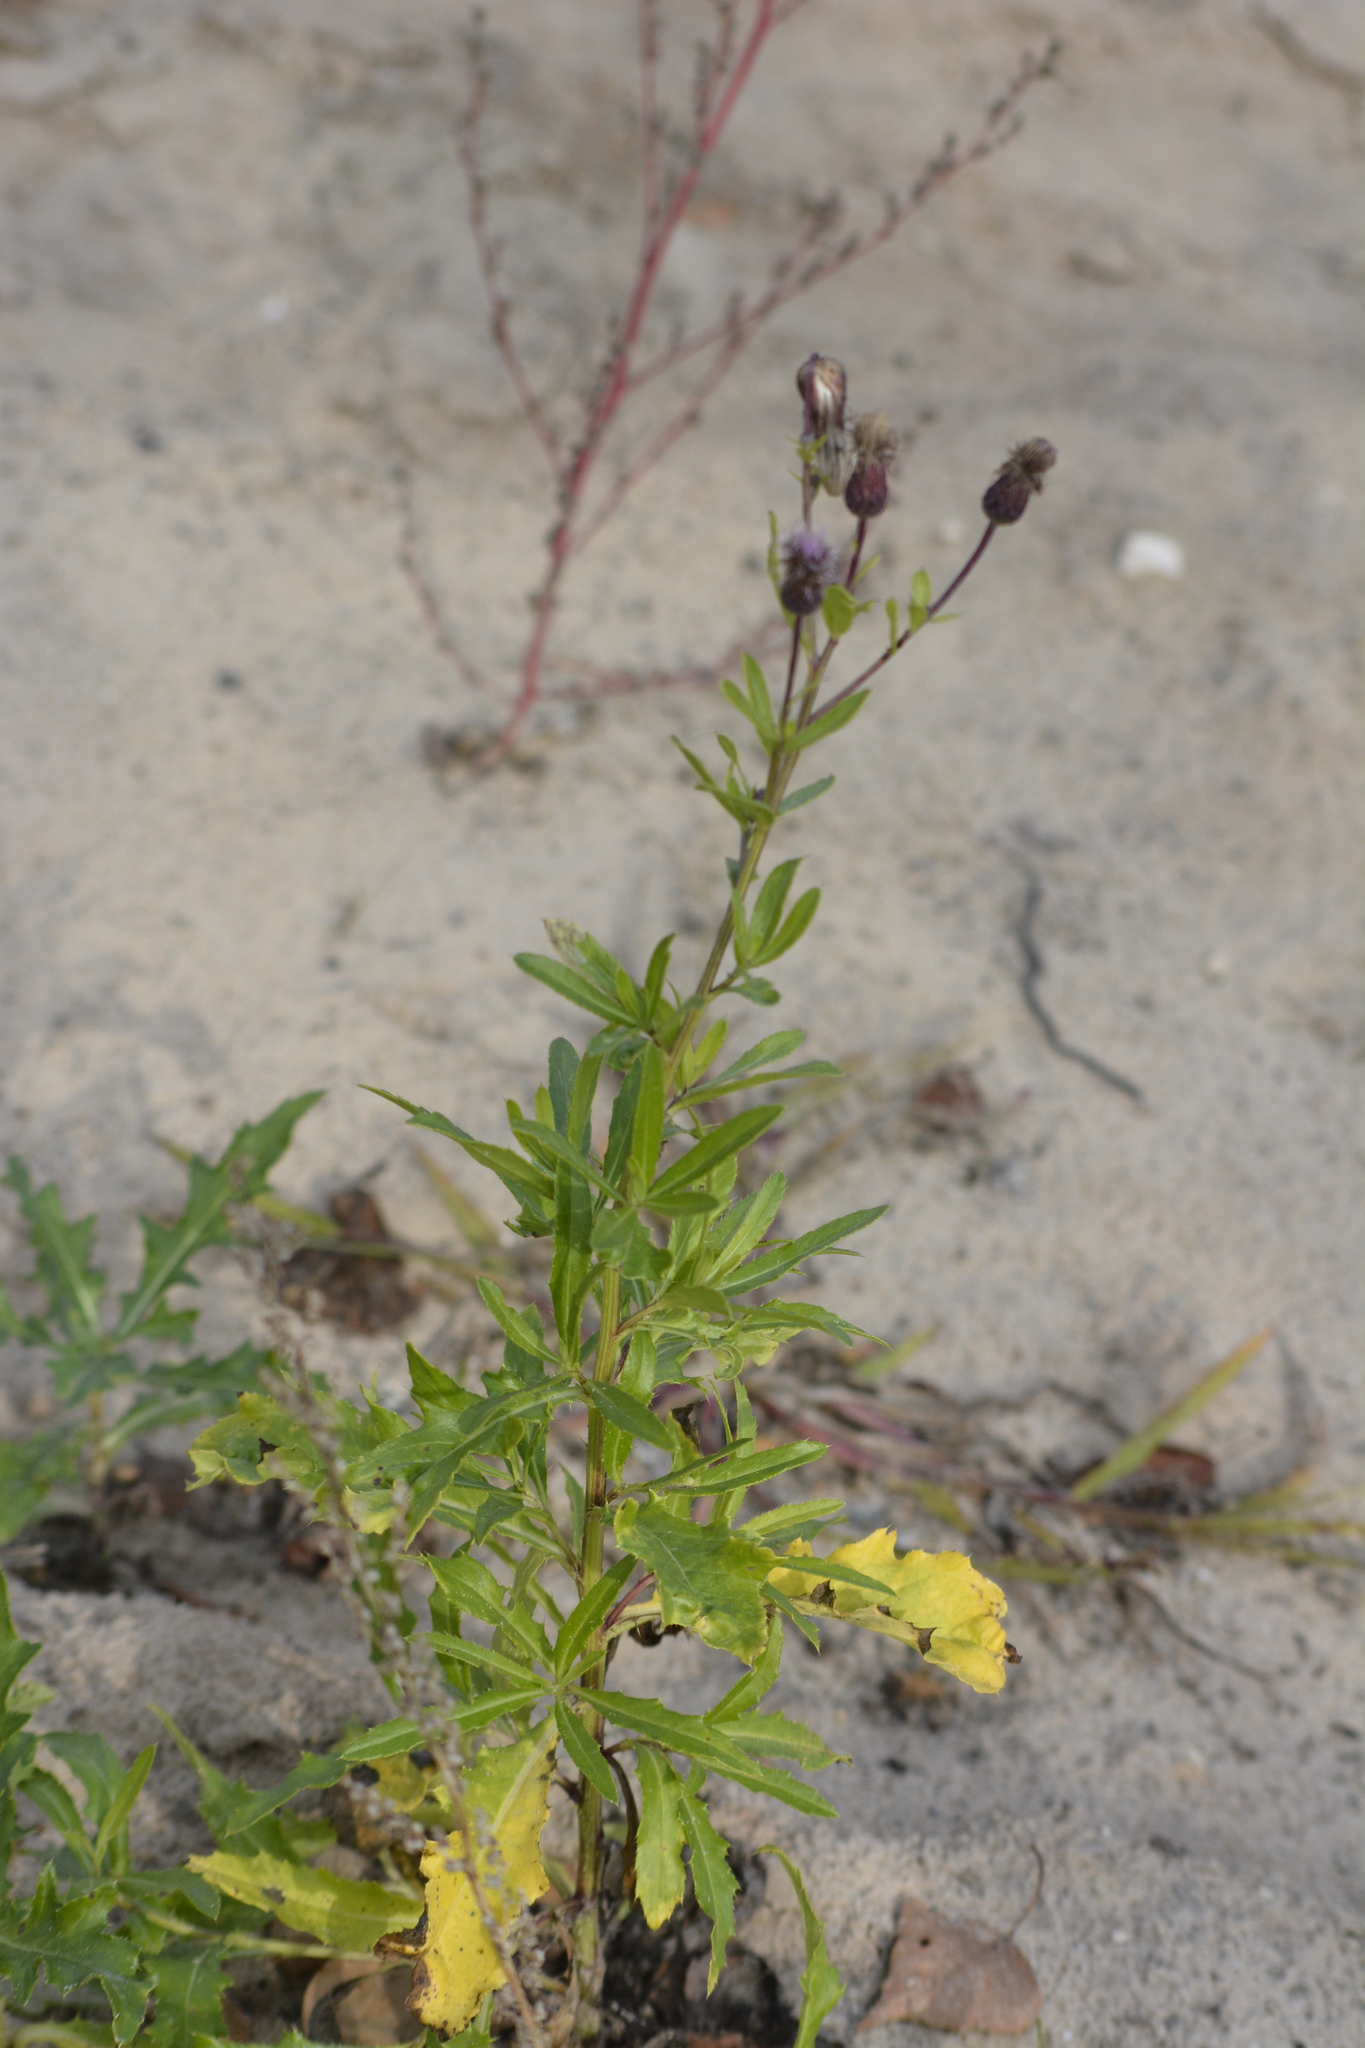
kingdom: Plantae
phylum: Tracheophyta
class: Magnoliopsida
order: Asterales
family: Asteraceae
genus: Cirsium
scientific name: Cirsium arvense
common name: Creeping thistle
